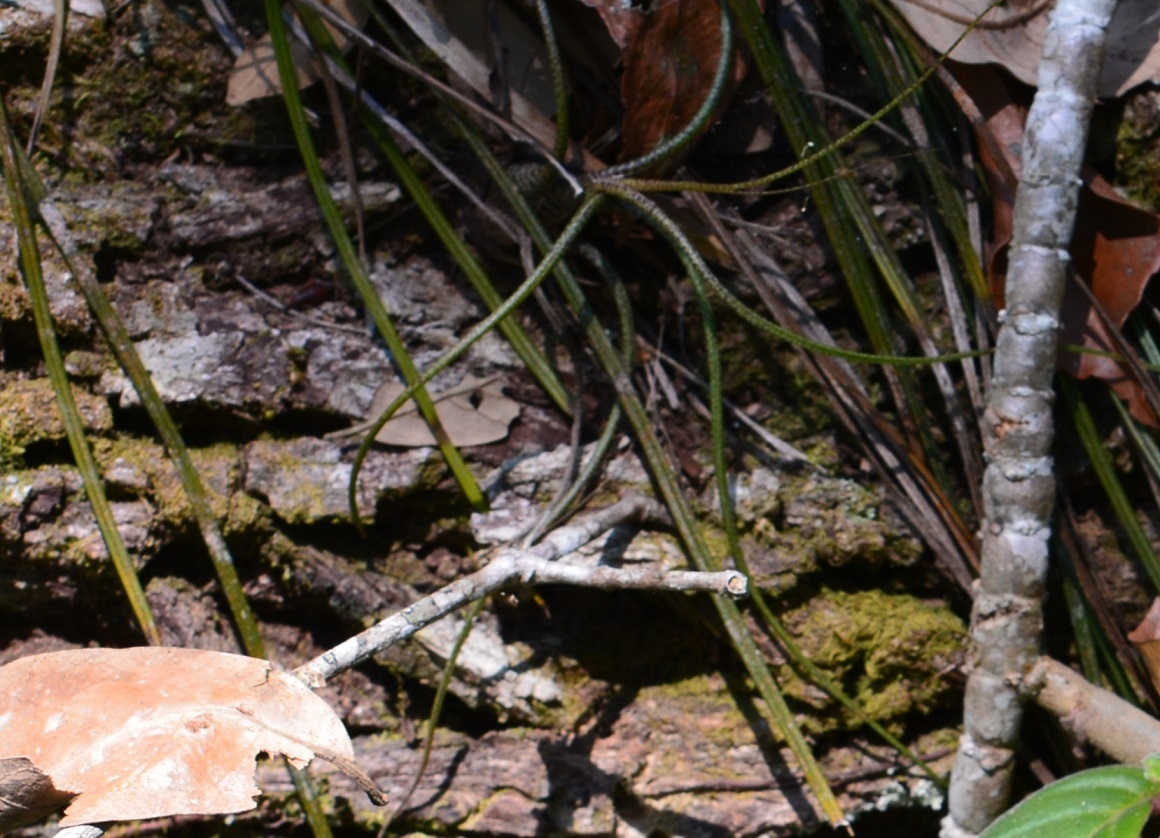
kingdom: Plantae
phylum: Tracheophyta
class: Liliopsida
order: Poales
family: Bromeliaceae
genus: Tillandsia
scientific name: Tillandsia butzii
